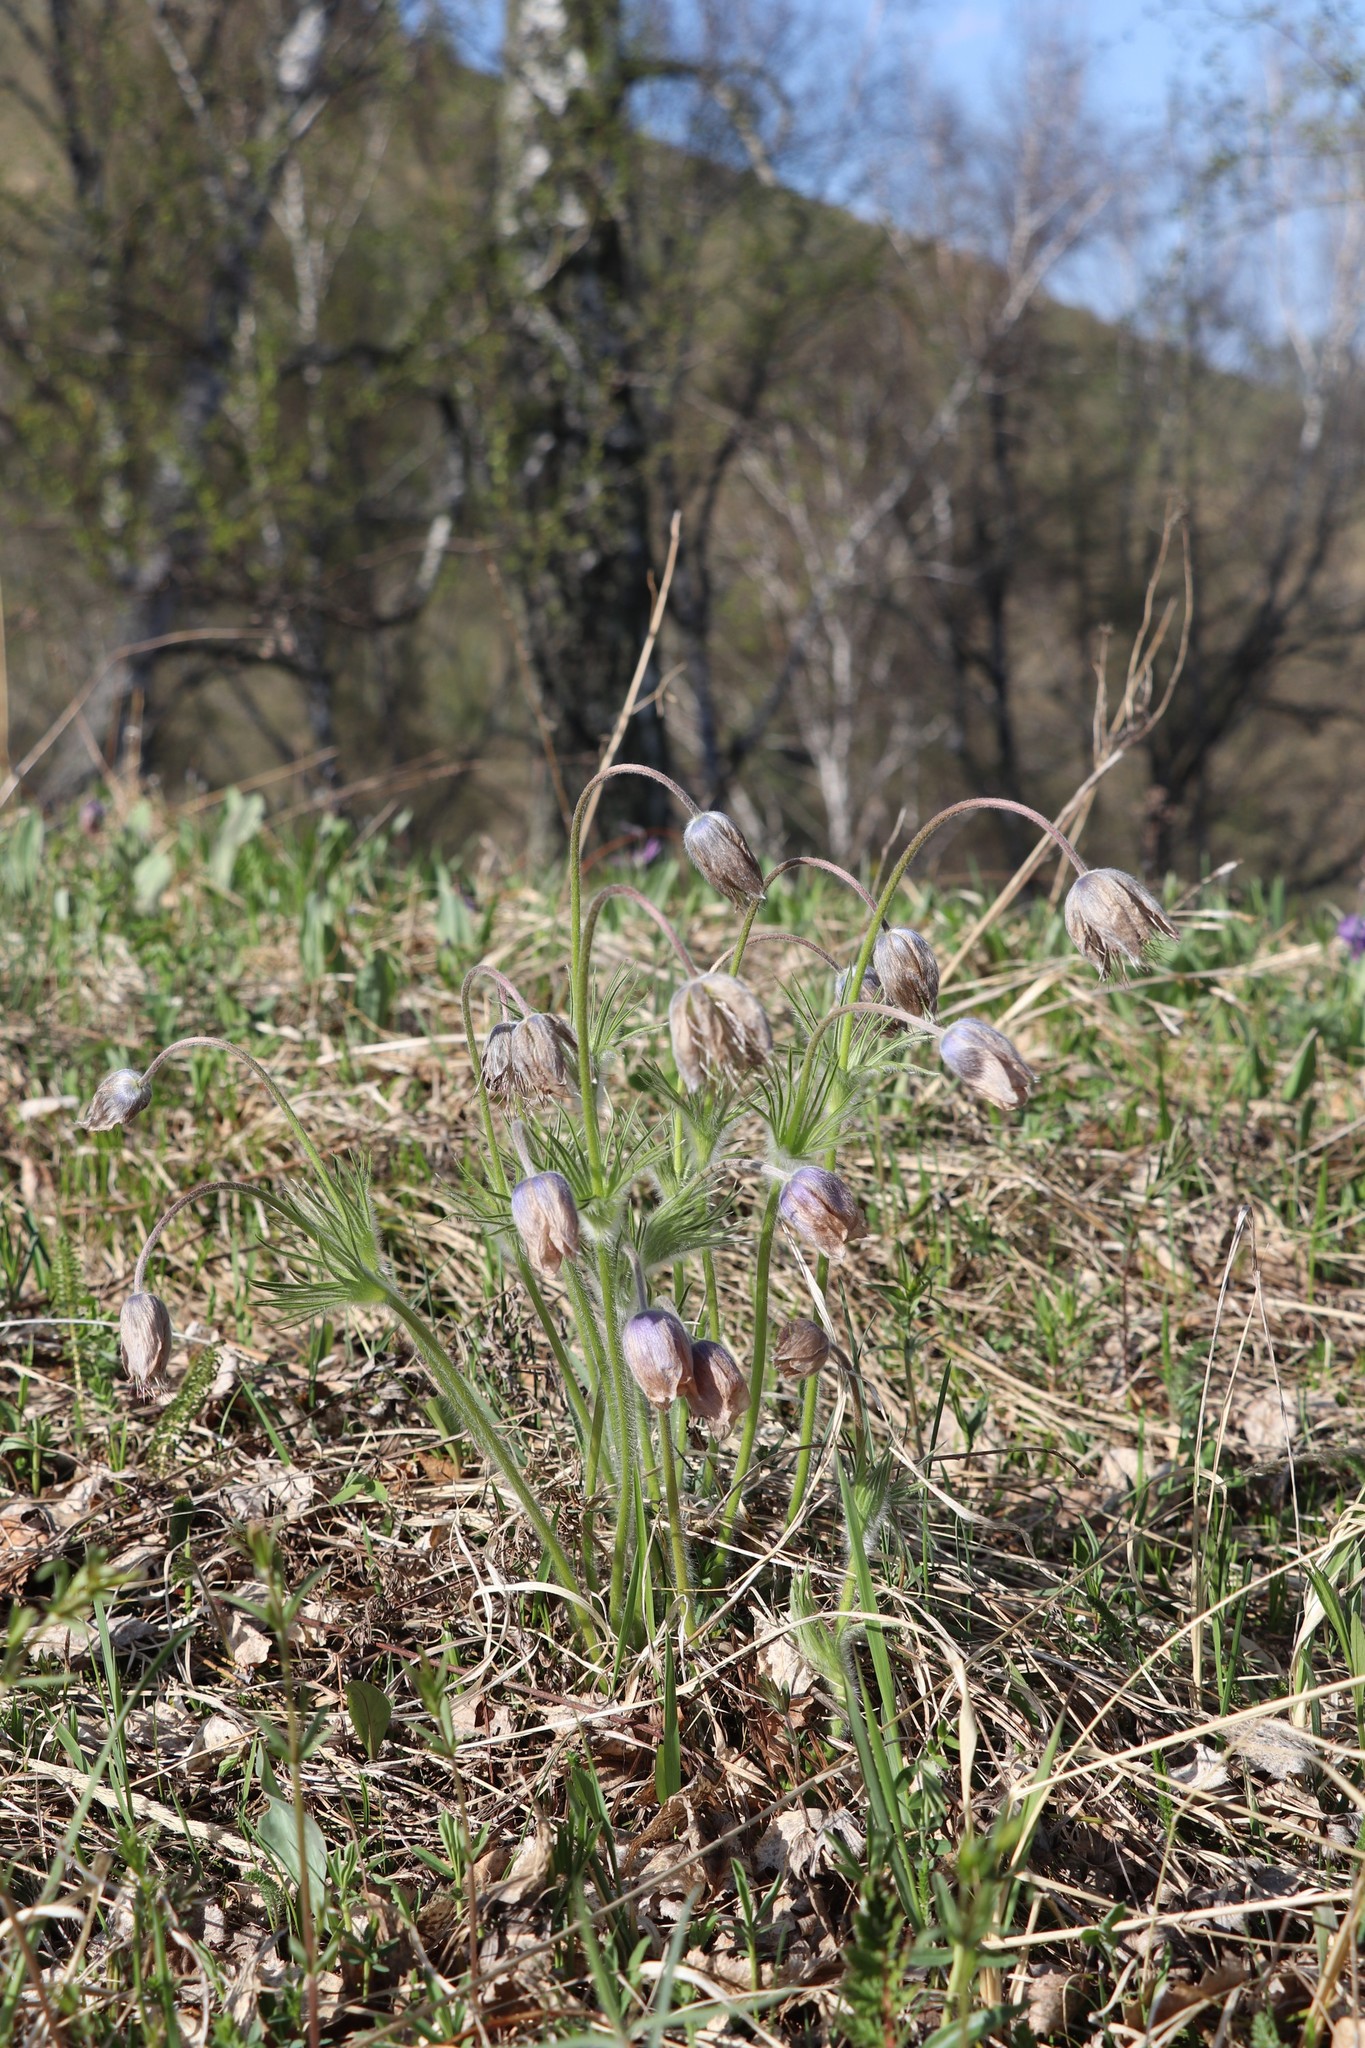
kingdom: Plantae
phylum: Tracheophyta
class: Magnoliopsida
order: Ranunculales
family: Ranunculaceae
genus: Pulsatilla
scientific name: Pulsatilla patens
